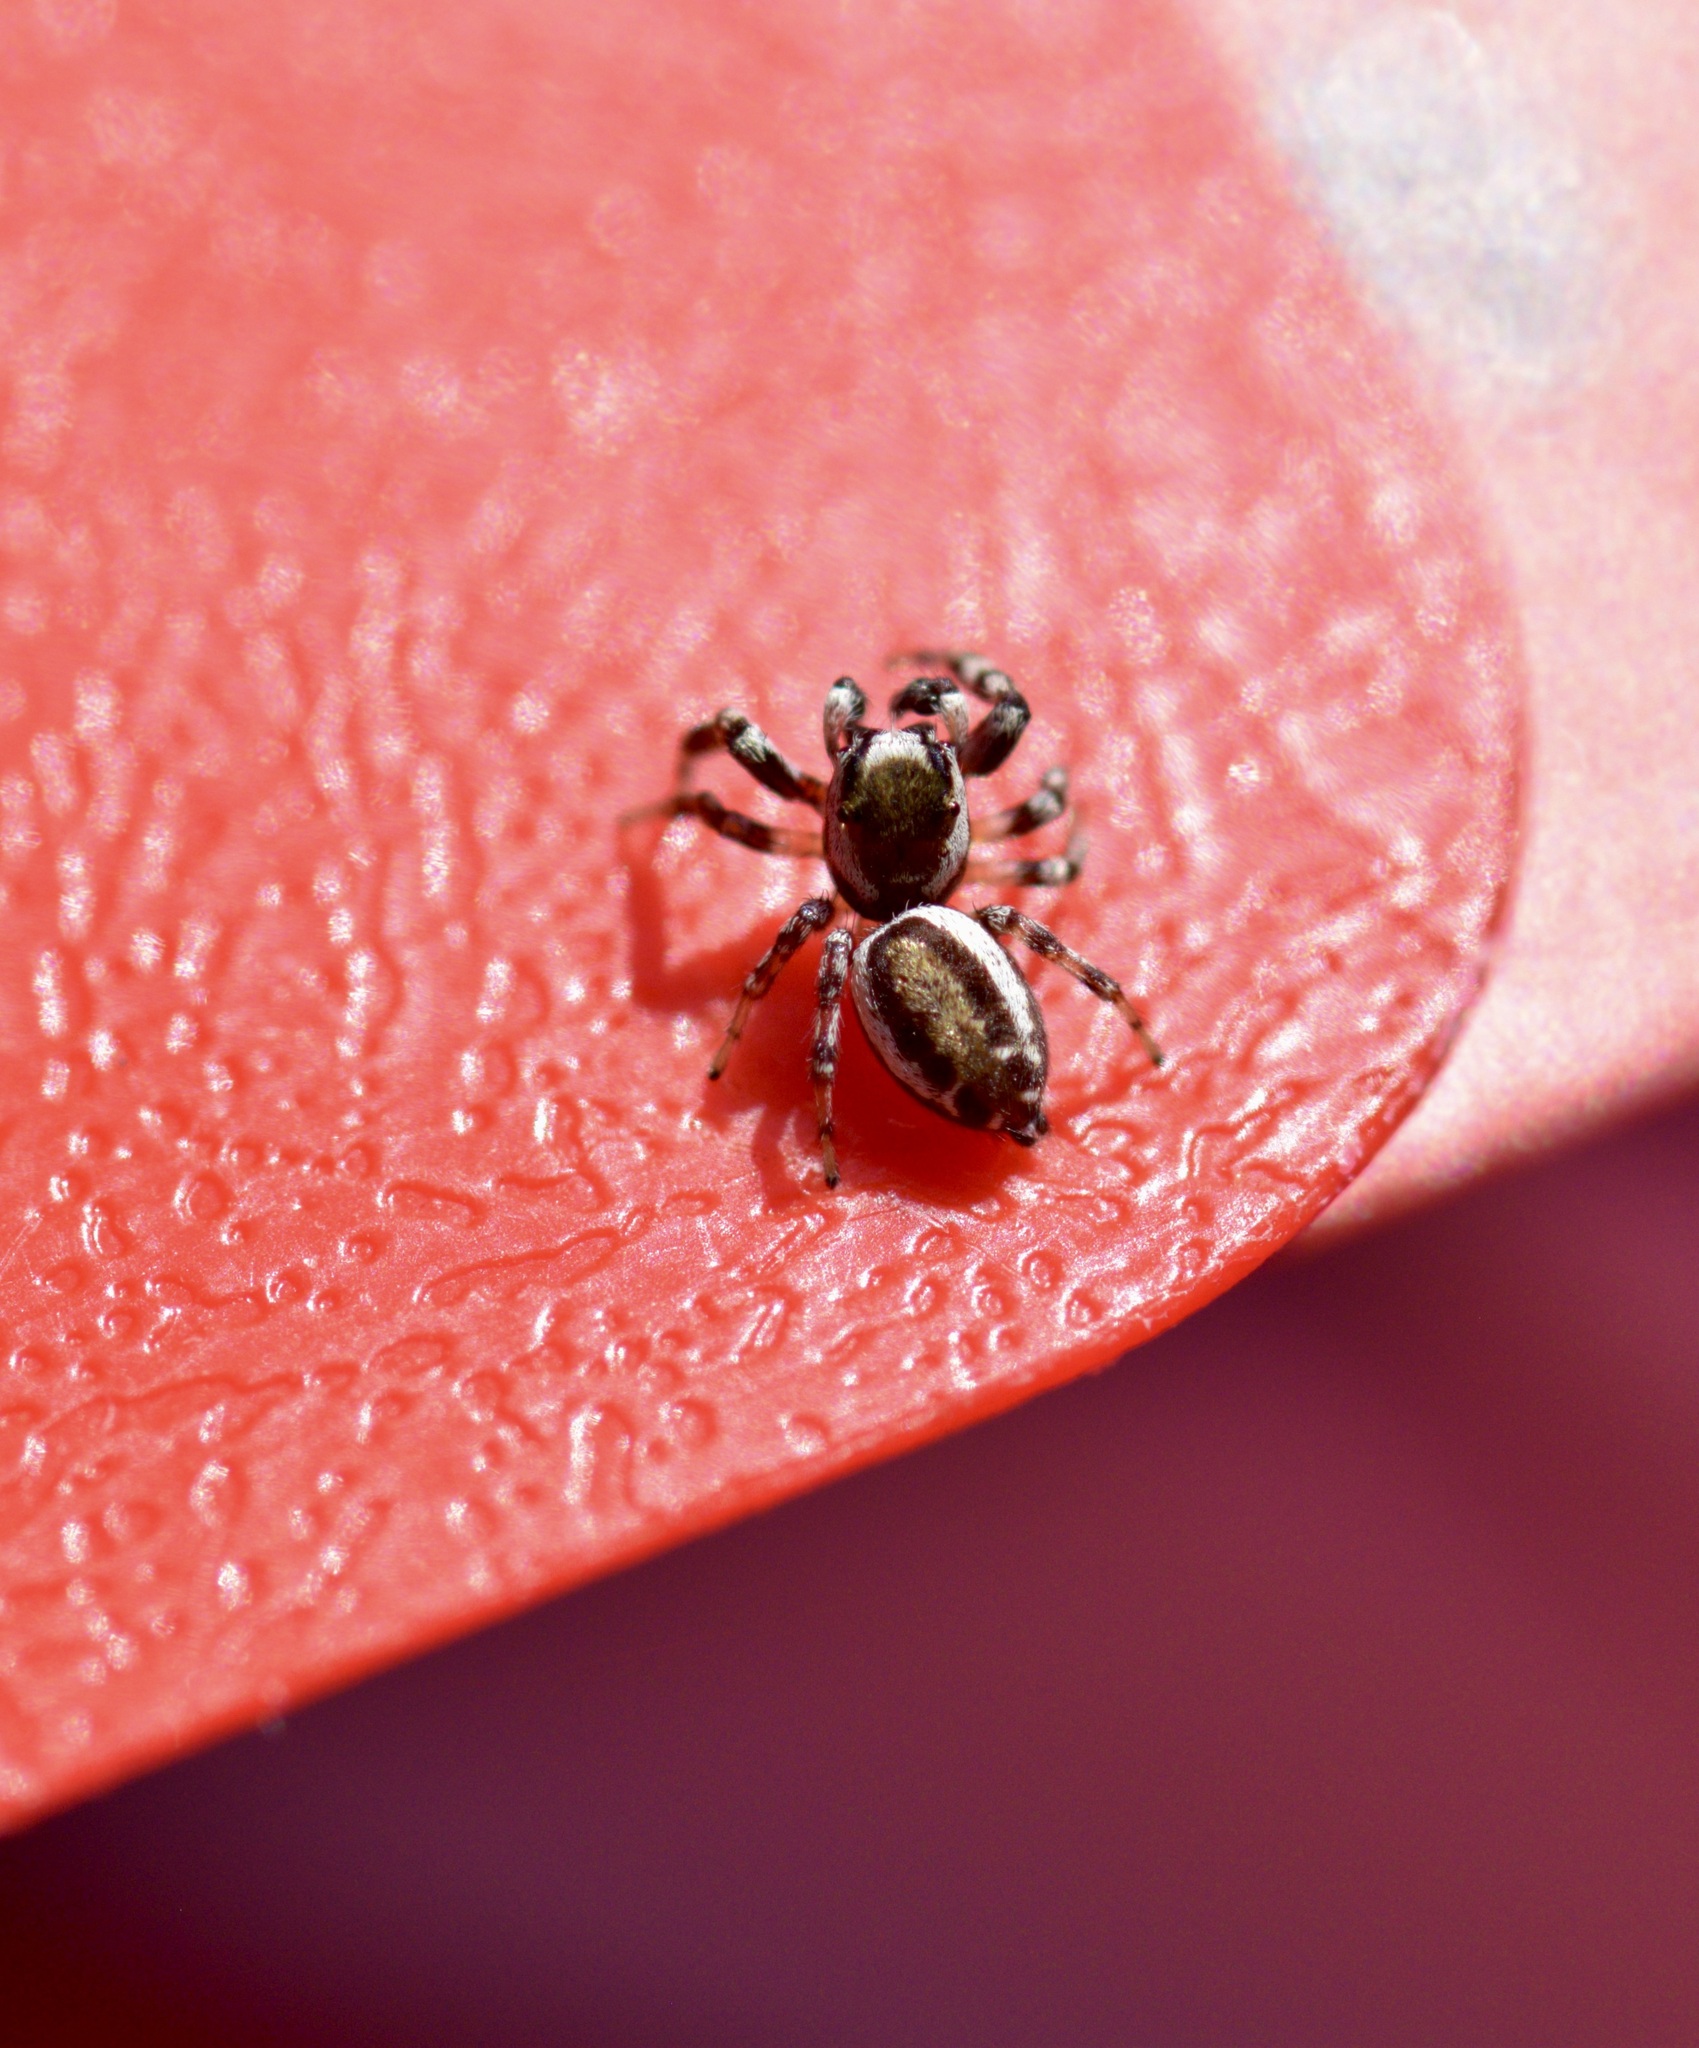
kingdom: Animalia
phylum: Arthropoda
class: Arachnida
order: Araneae
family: Salticidae
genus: Pelegrina
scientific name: Pelegrina proterva
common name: Common white-cheeked jumping spider
